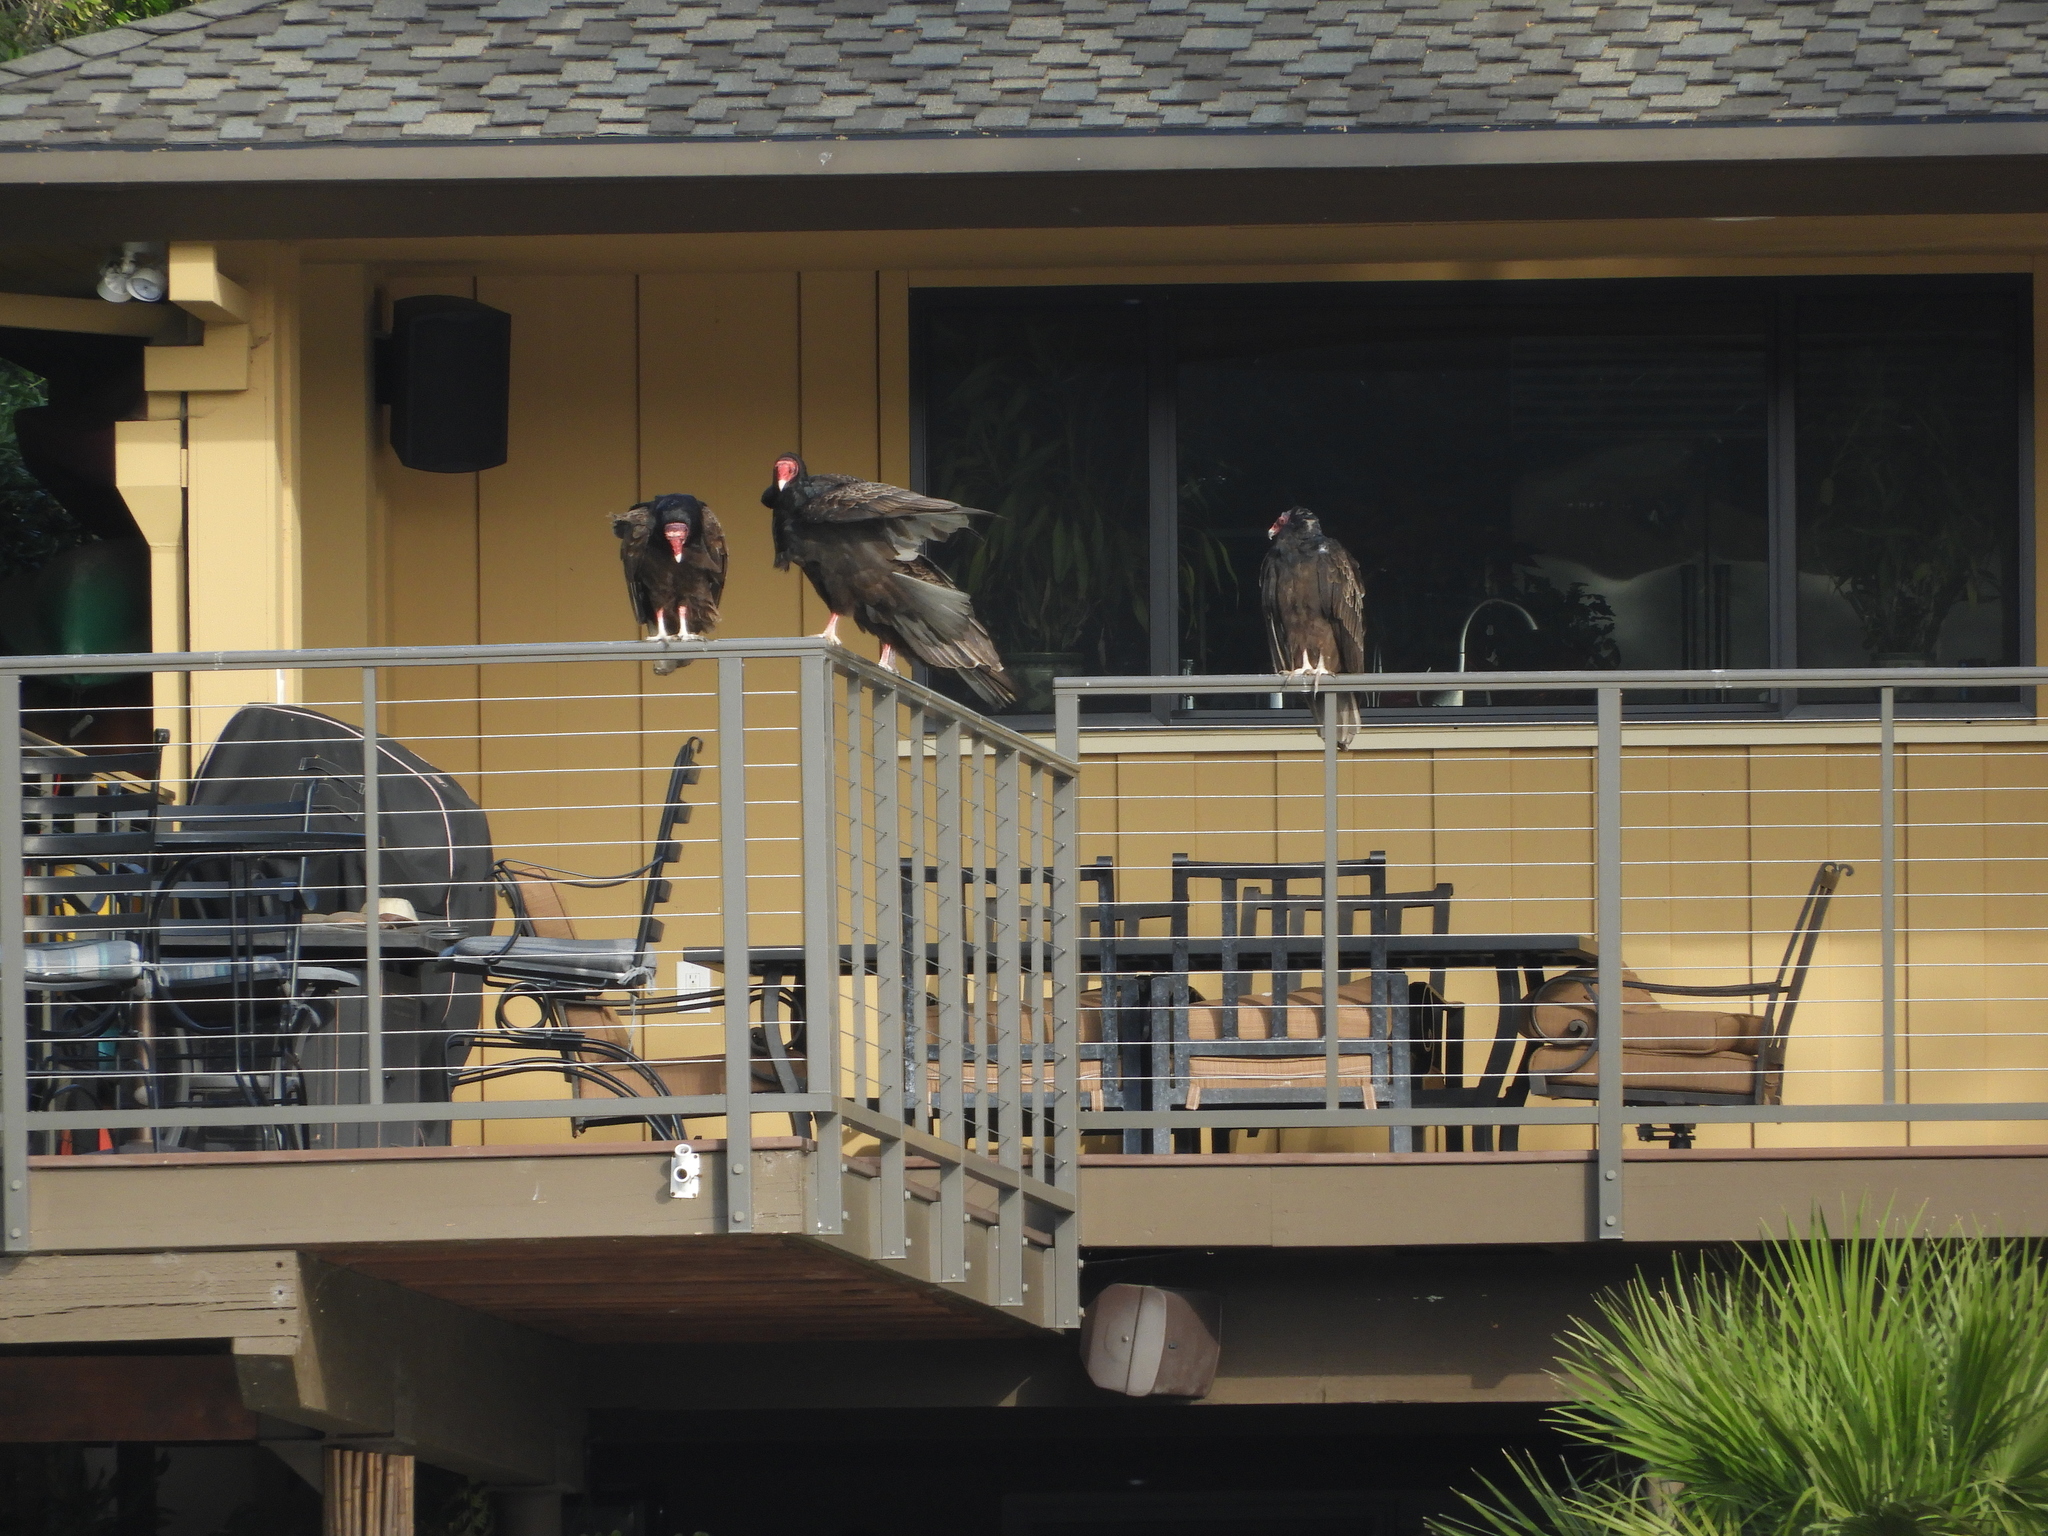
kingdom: Animalia
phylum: Chordata
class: Aves
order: Accipitriformes
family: Cathartidae
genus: Cathartes
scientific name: Cathartes aura
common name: Turkey vulture
